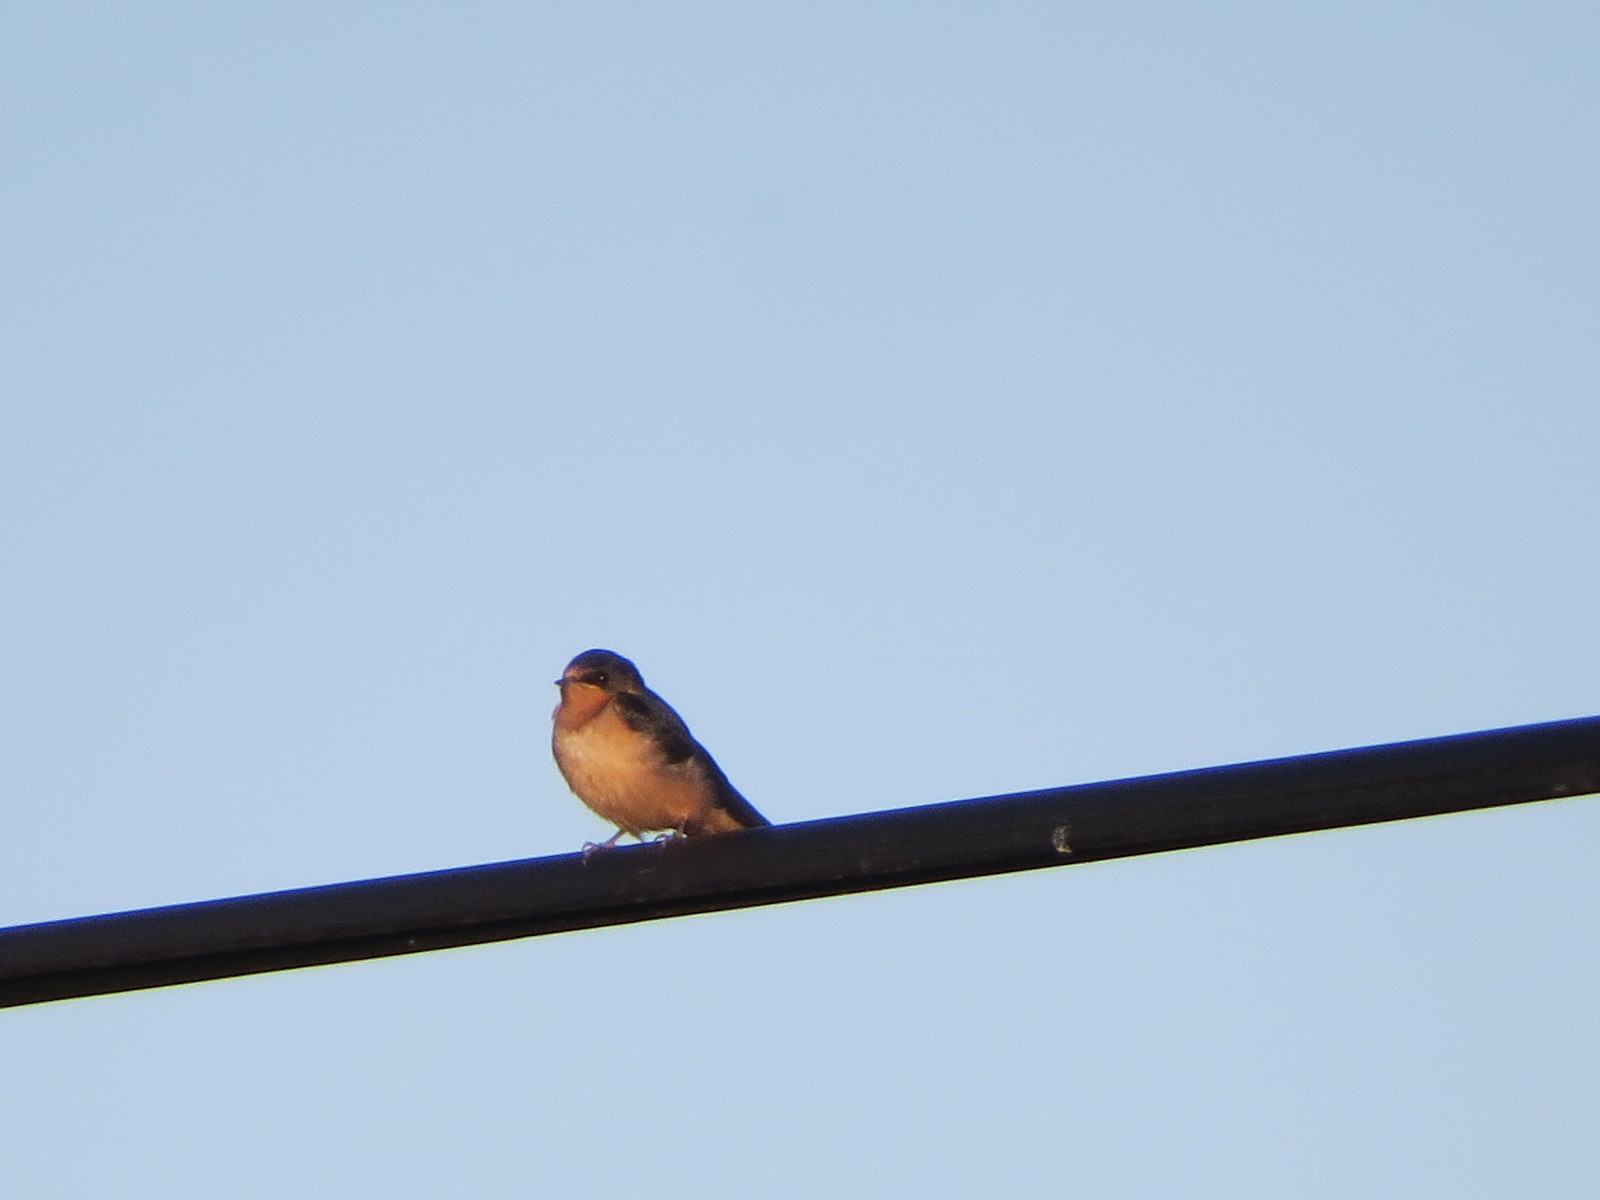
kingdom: Animalia
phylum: Chordata
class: Aves
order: Passeriformes
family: Hirundinidae
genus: Hirundo
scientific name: Hirundo rustica
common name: Barn swallow
